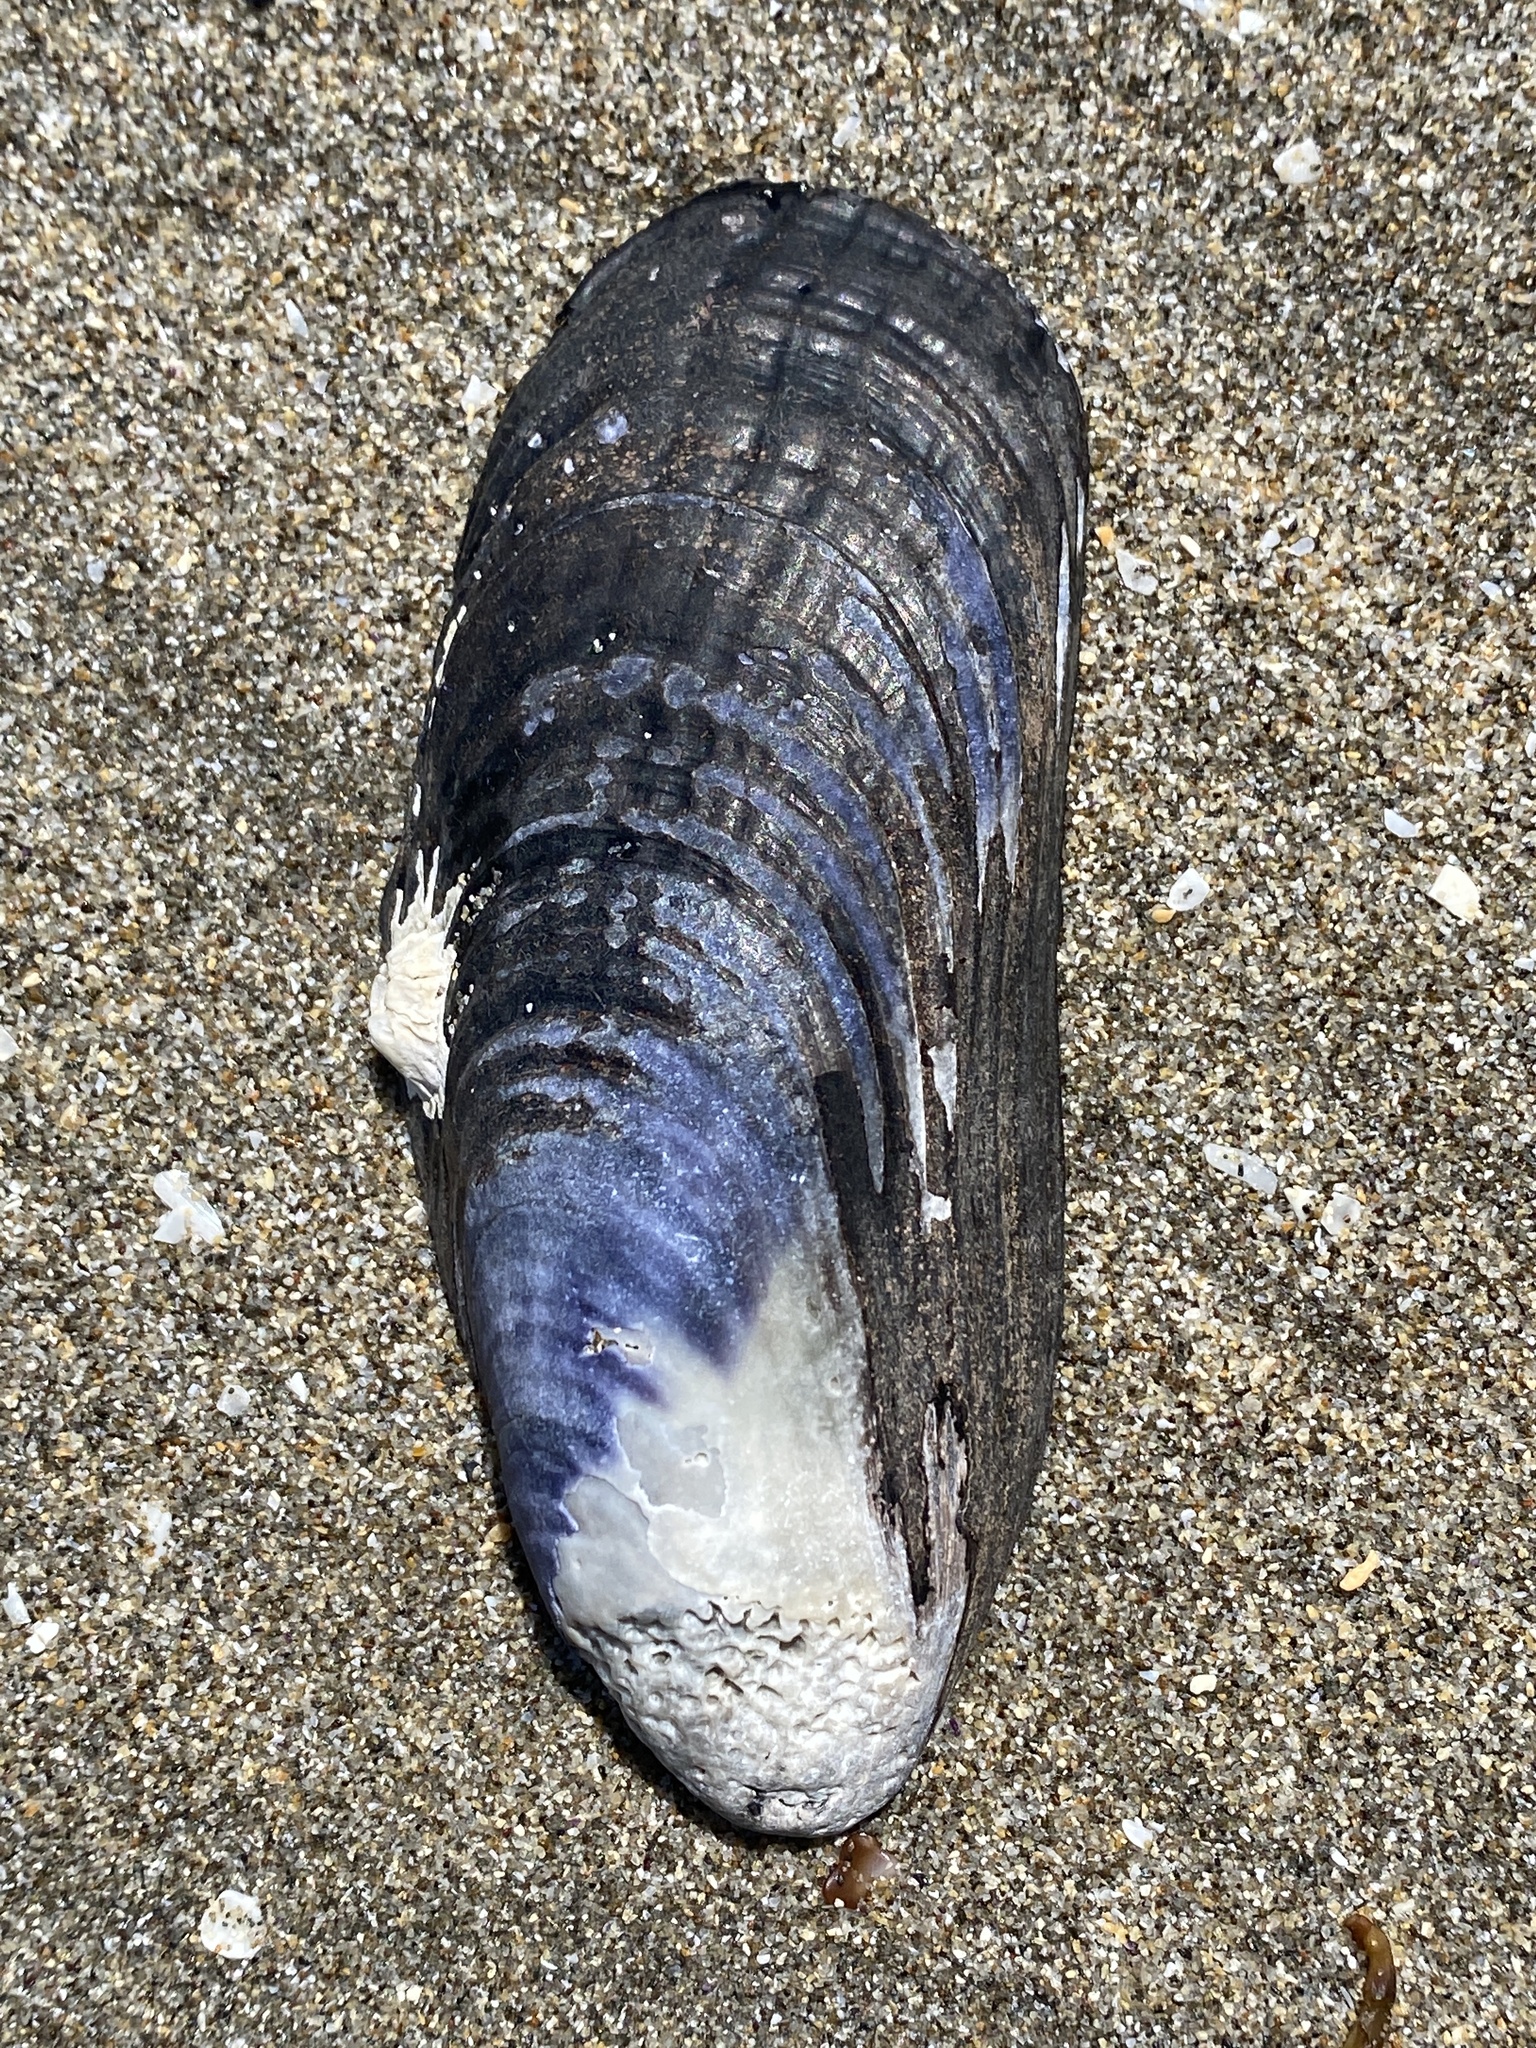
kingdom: Animalia
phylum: Mollusca
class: Bivalvia
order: Mytilida
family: Mytilidae
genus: Mytilus
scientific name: Mytilus californianus
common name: California mussel
